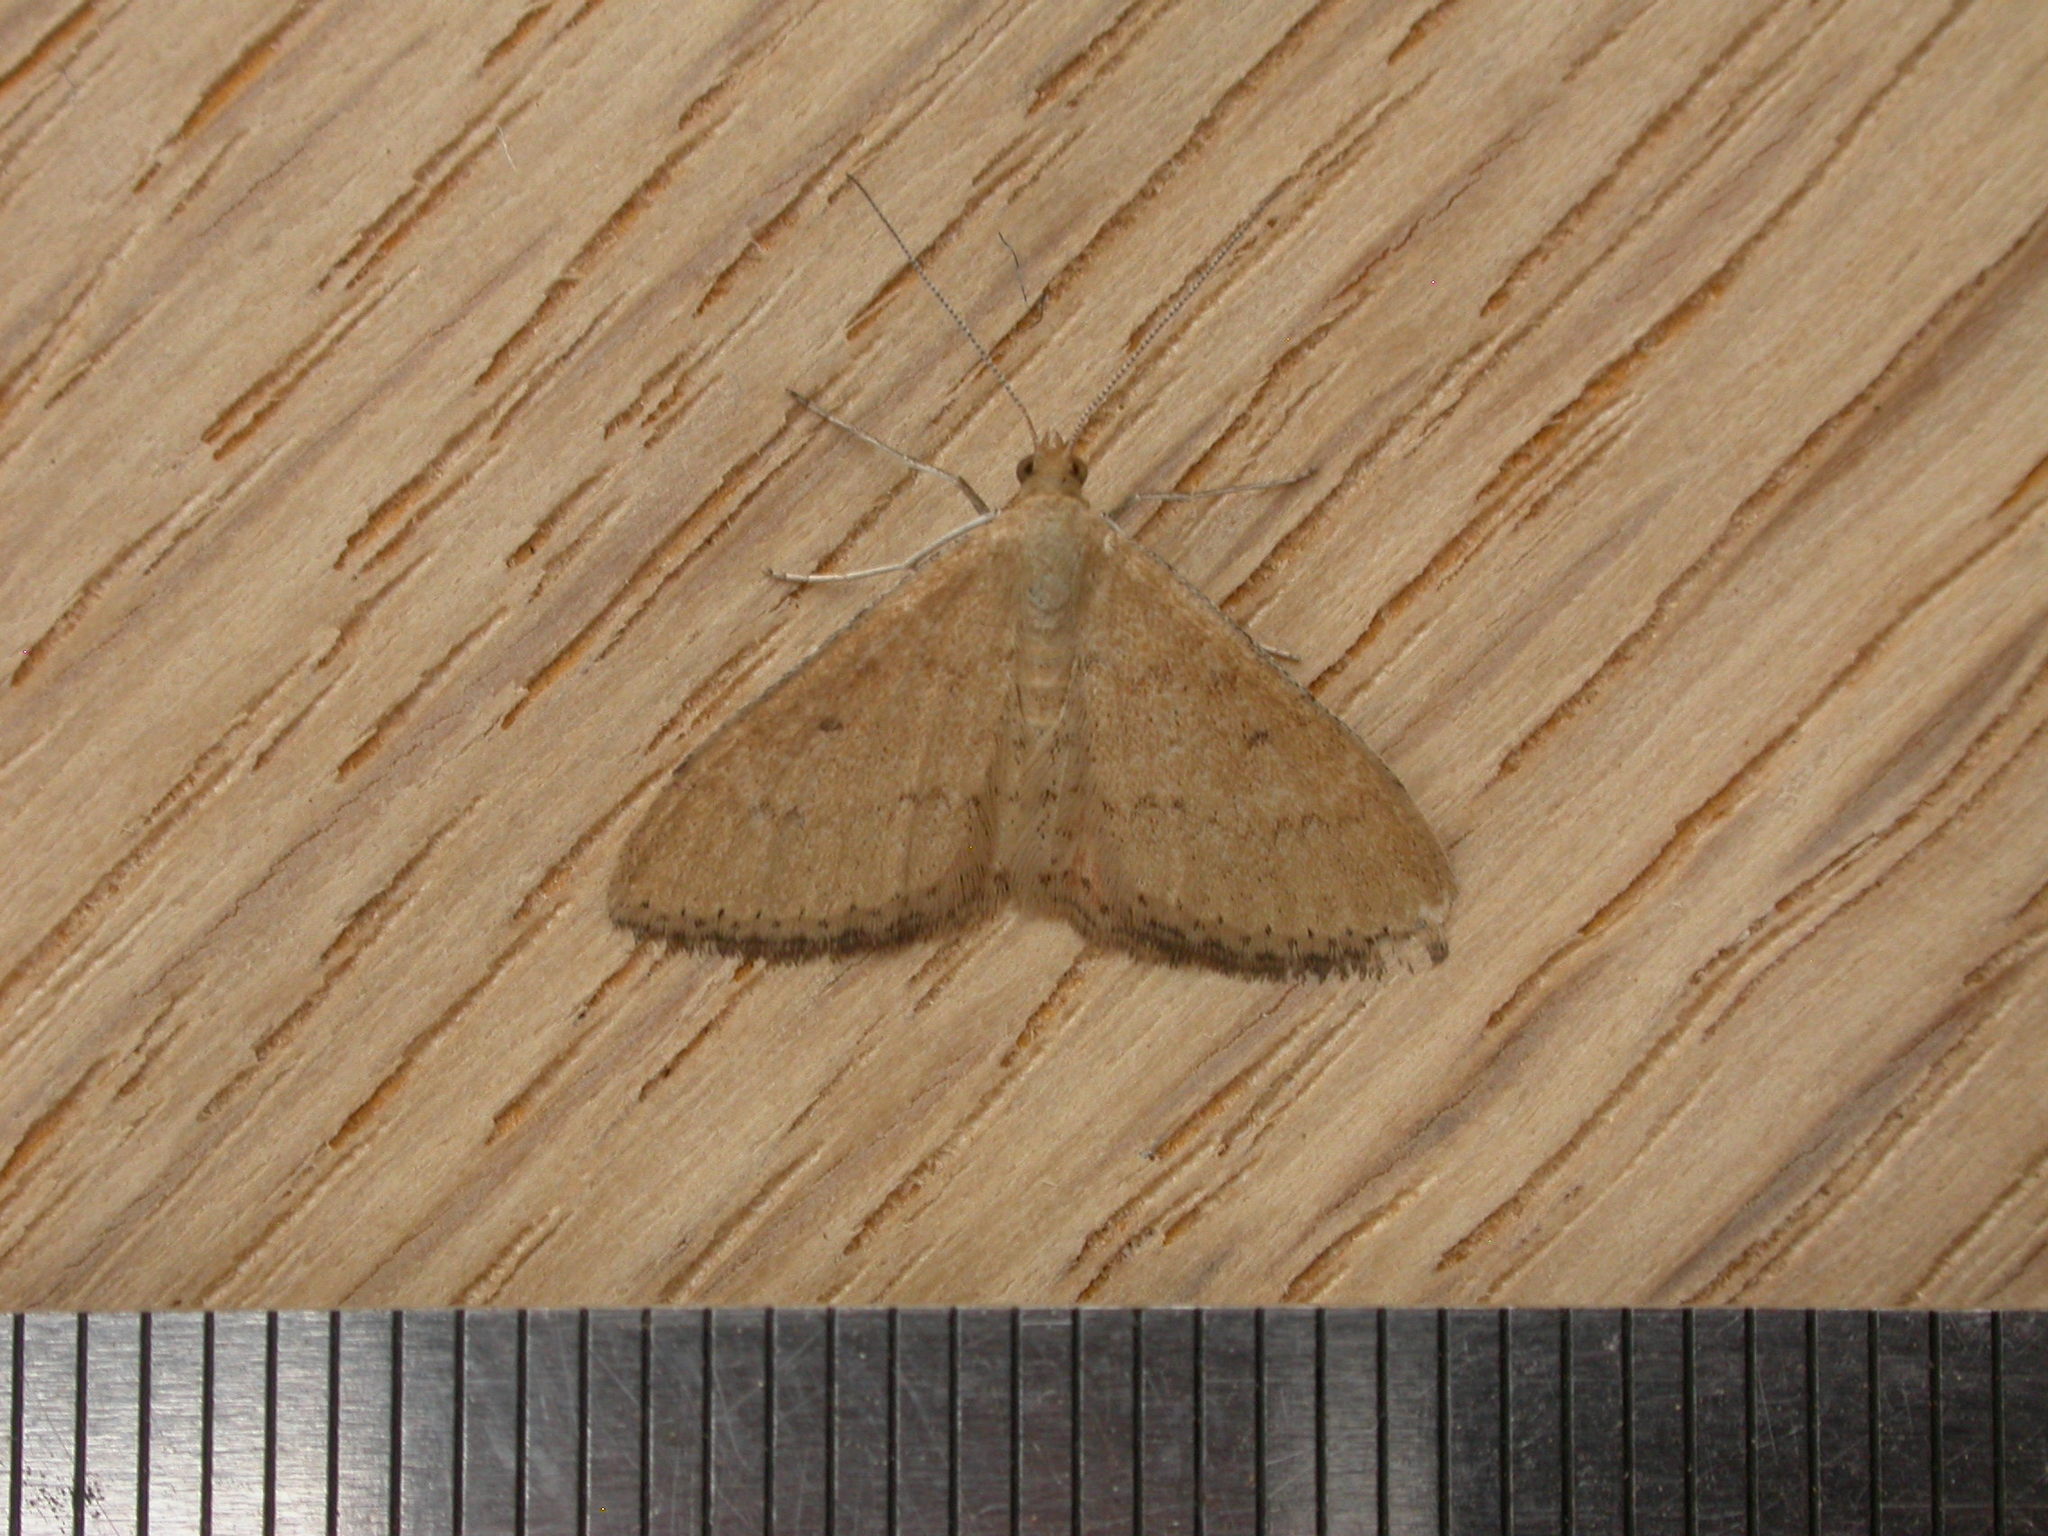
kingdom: Animalia
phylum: Arthropoda
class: Insecta
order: Lepidoptera
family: Geometridae
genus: Scopula
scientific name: Scopula rubraria
